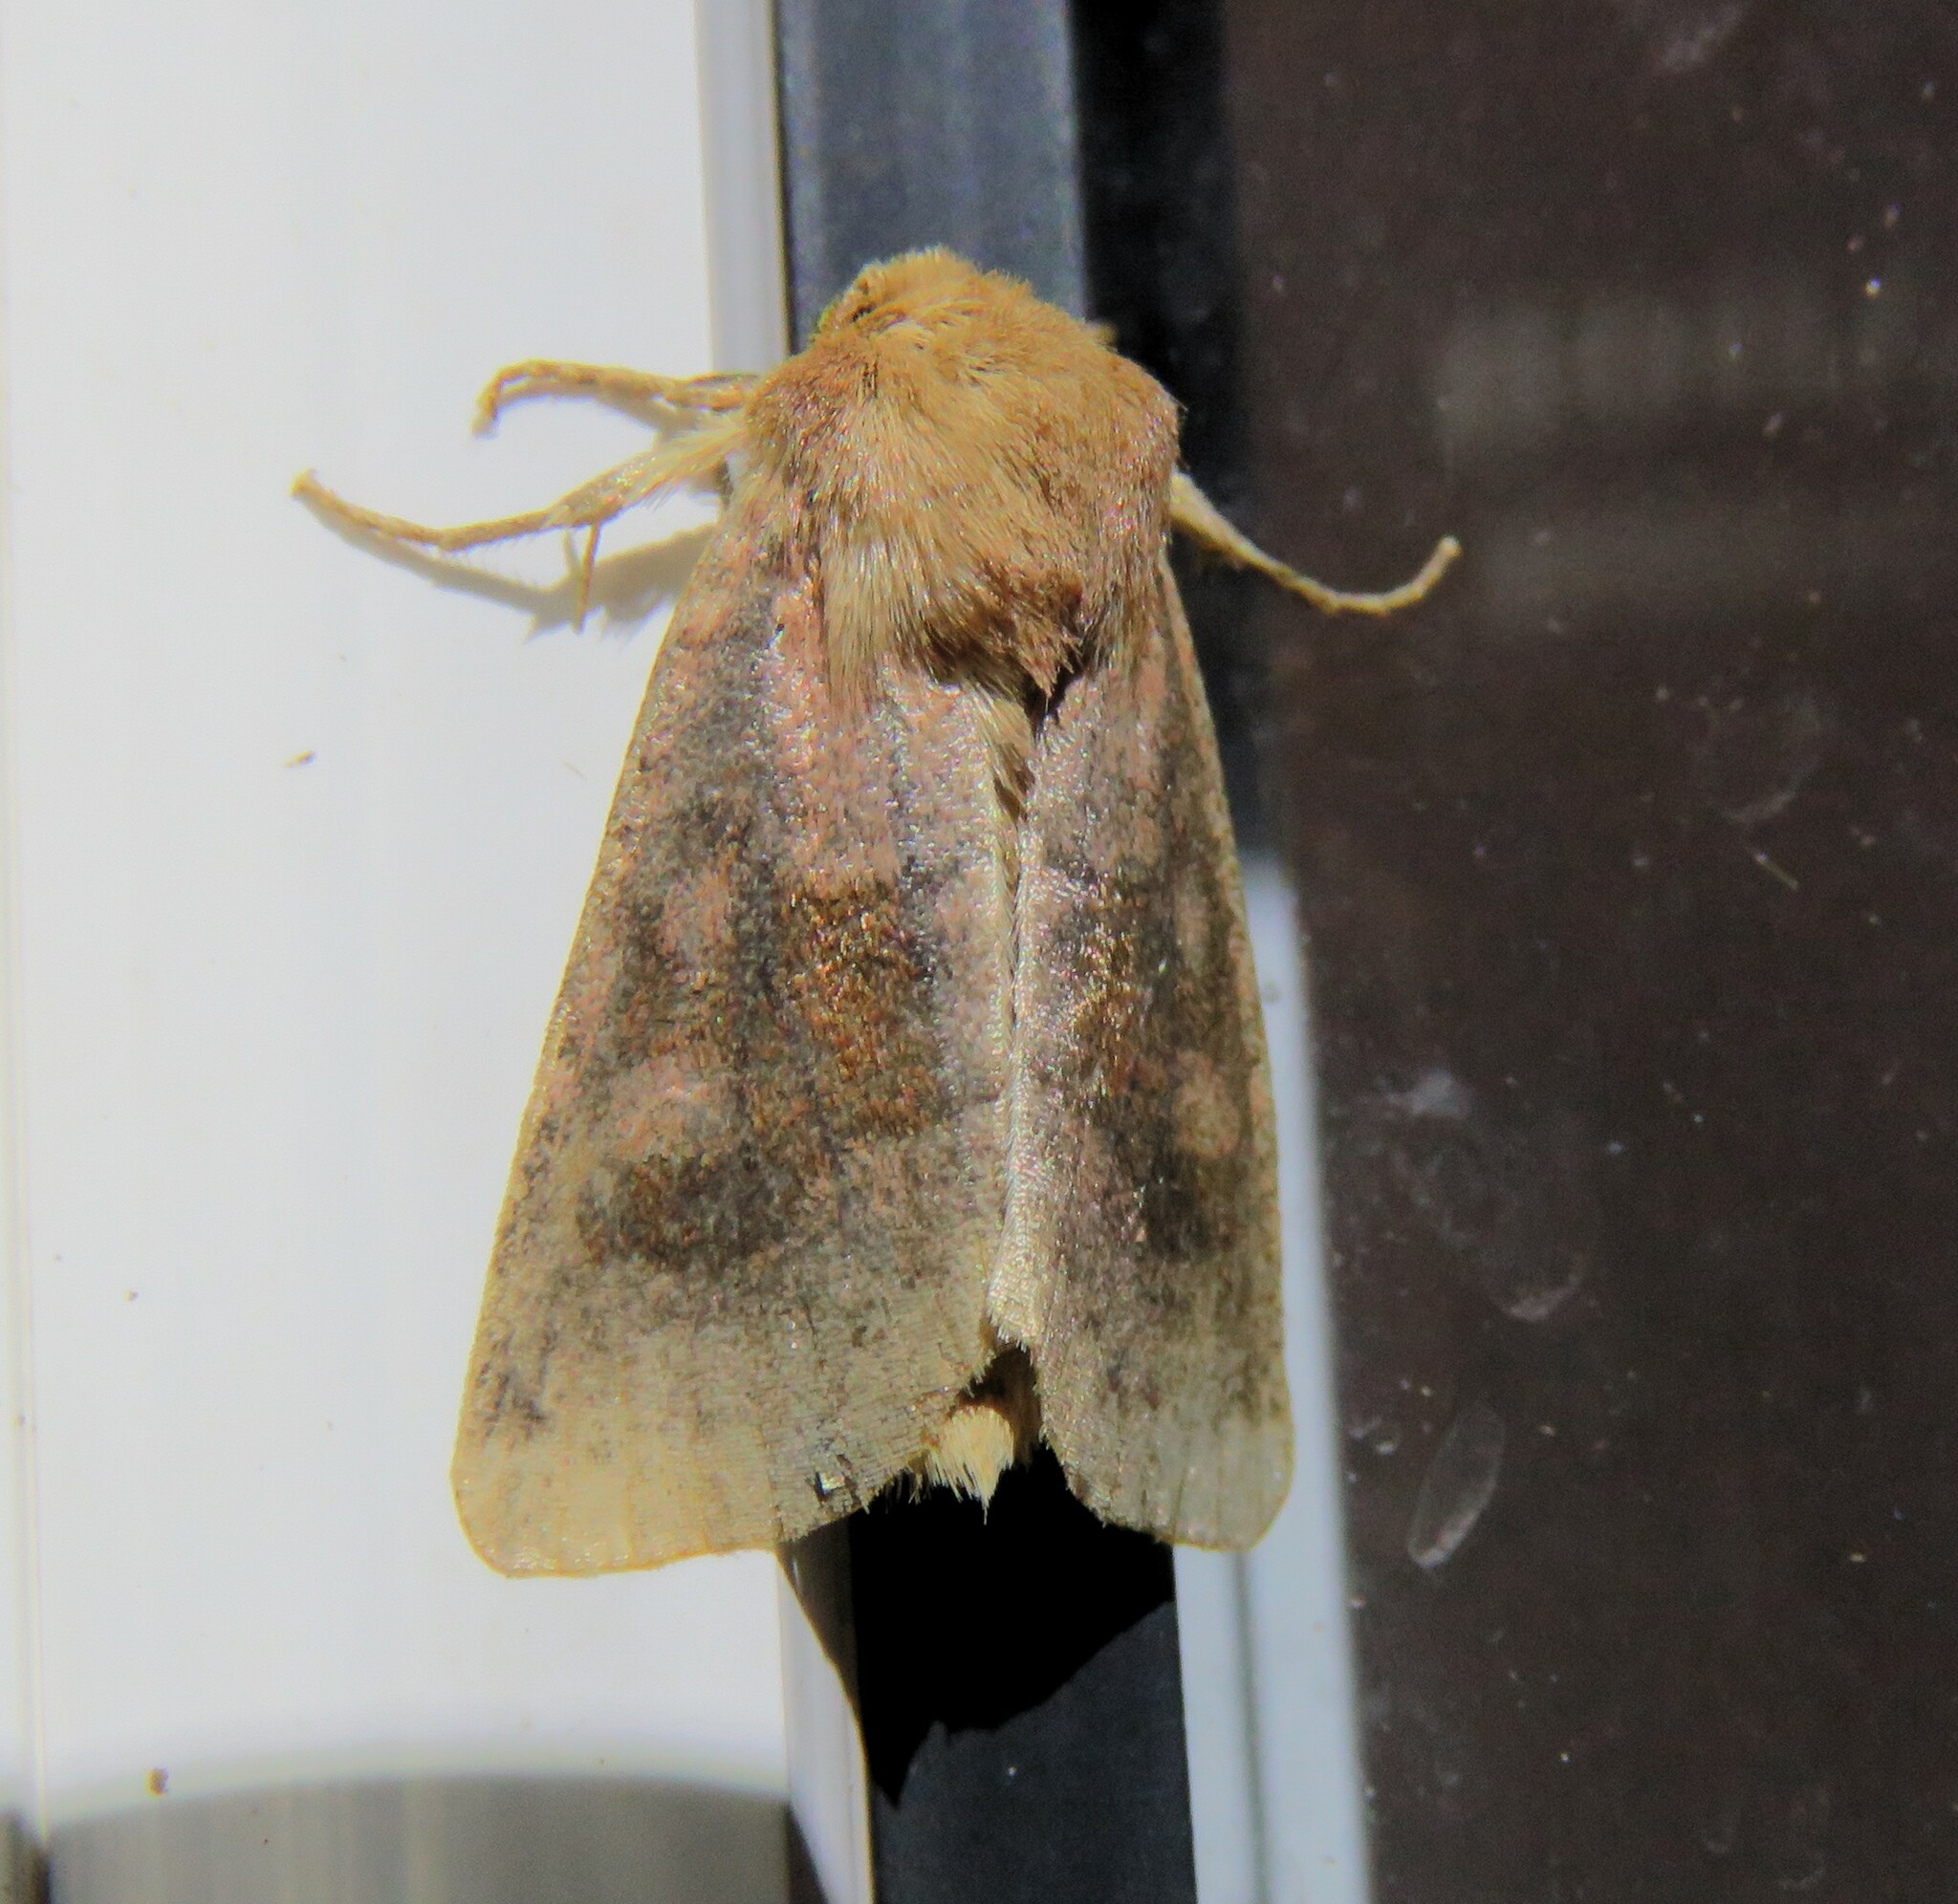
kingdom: Animalia
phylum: Arthropoda
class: Insecta
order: Lepidoptera
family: Noctuidae
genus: Nephelodes
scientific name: Nephelodes minians
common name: Bronzed cutworm
